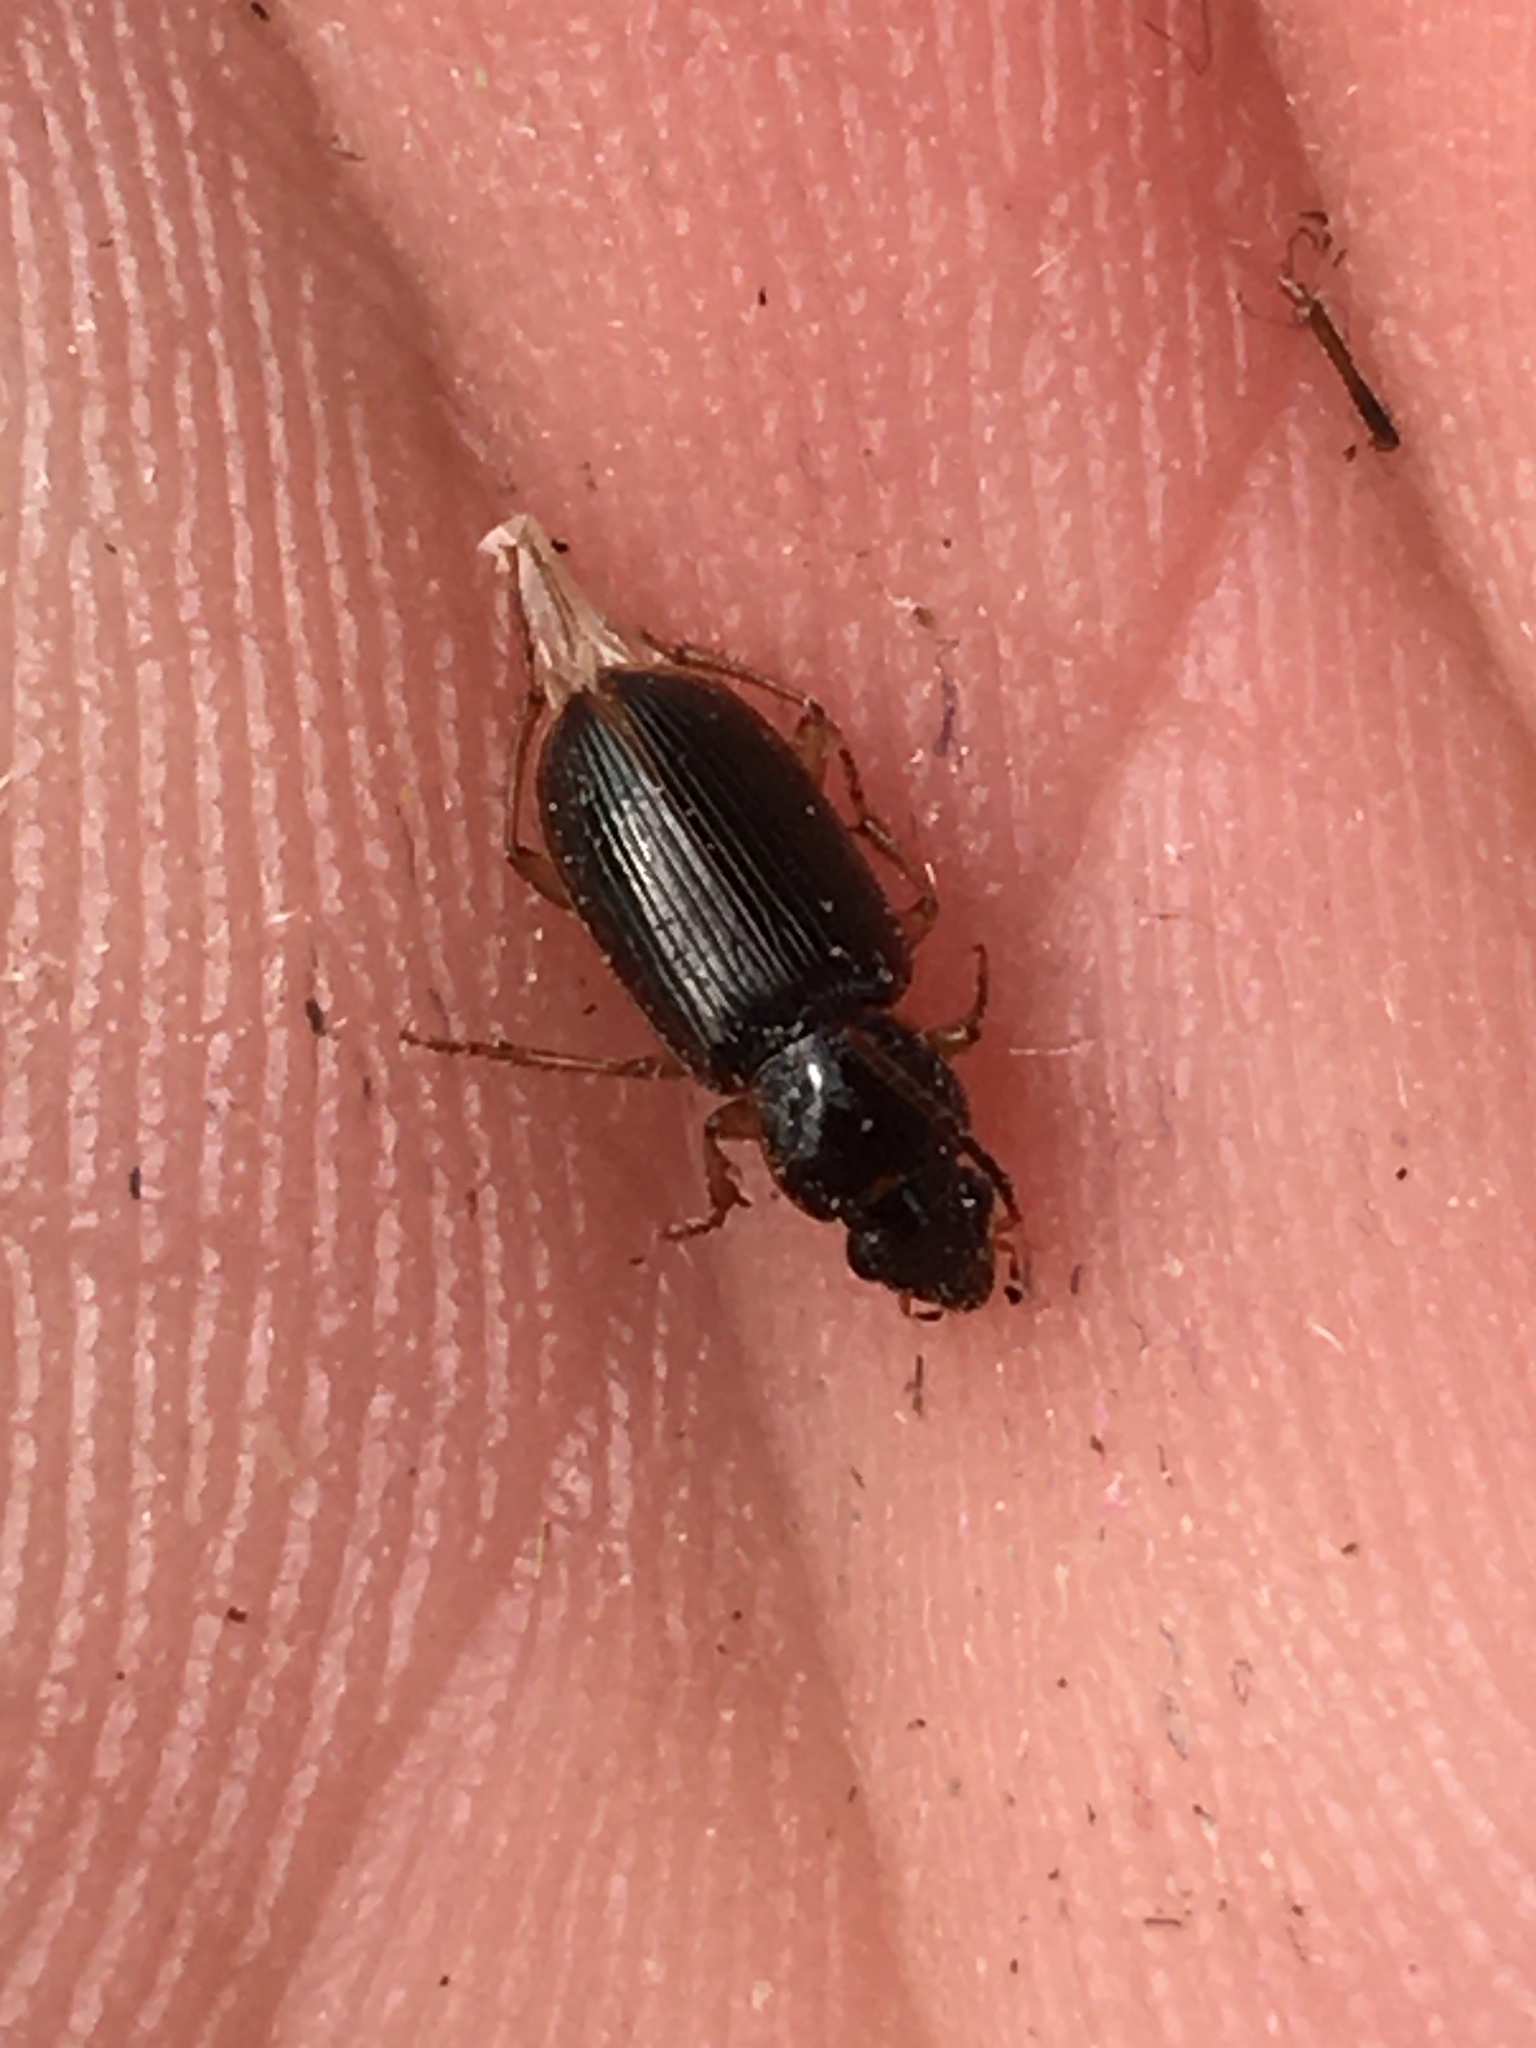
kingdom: Animalia
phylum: Arthropoda
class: Insecta
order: Coleoptera
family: Carabidae
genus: Stenolophus
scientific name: Stenolophus ochropezus
